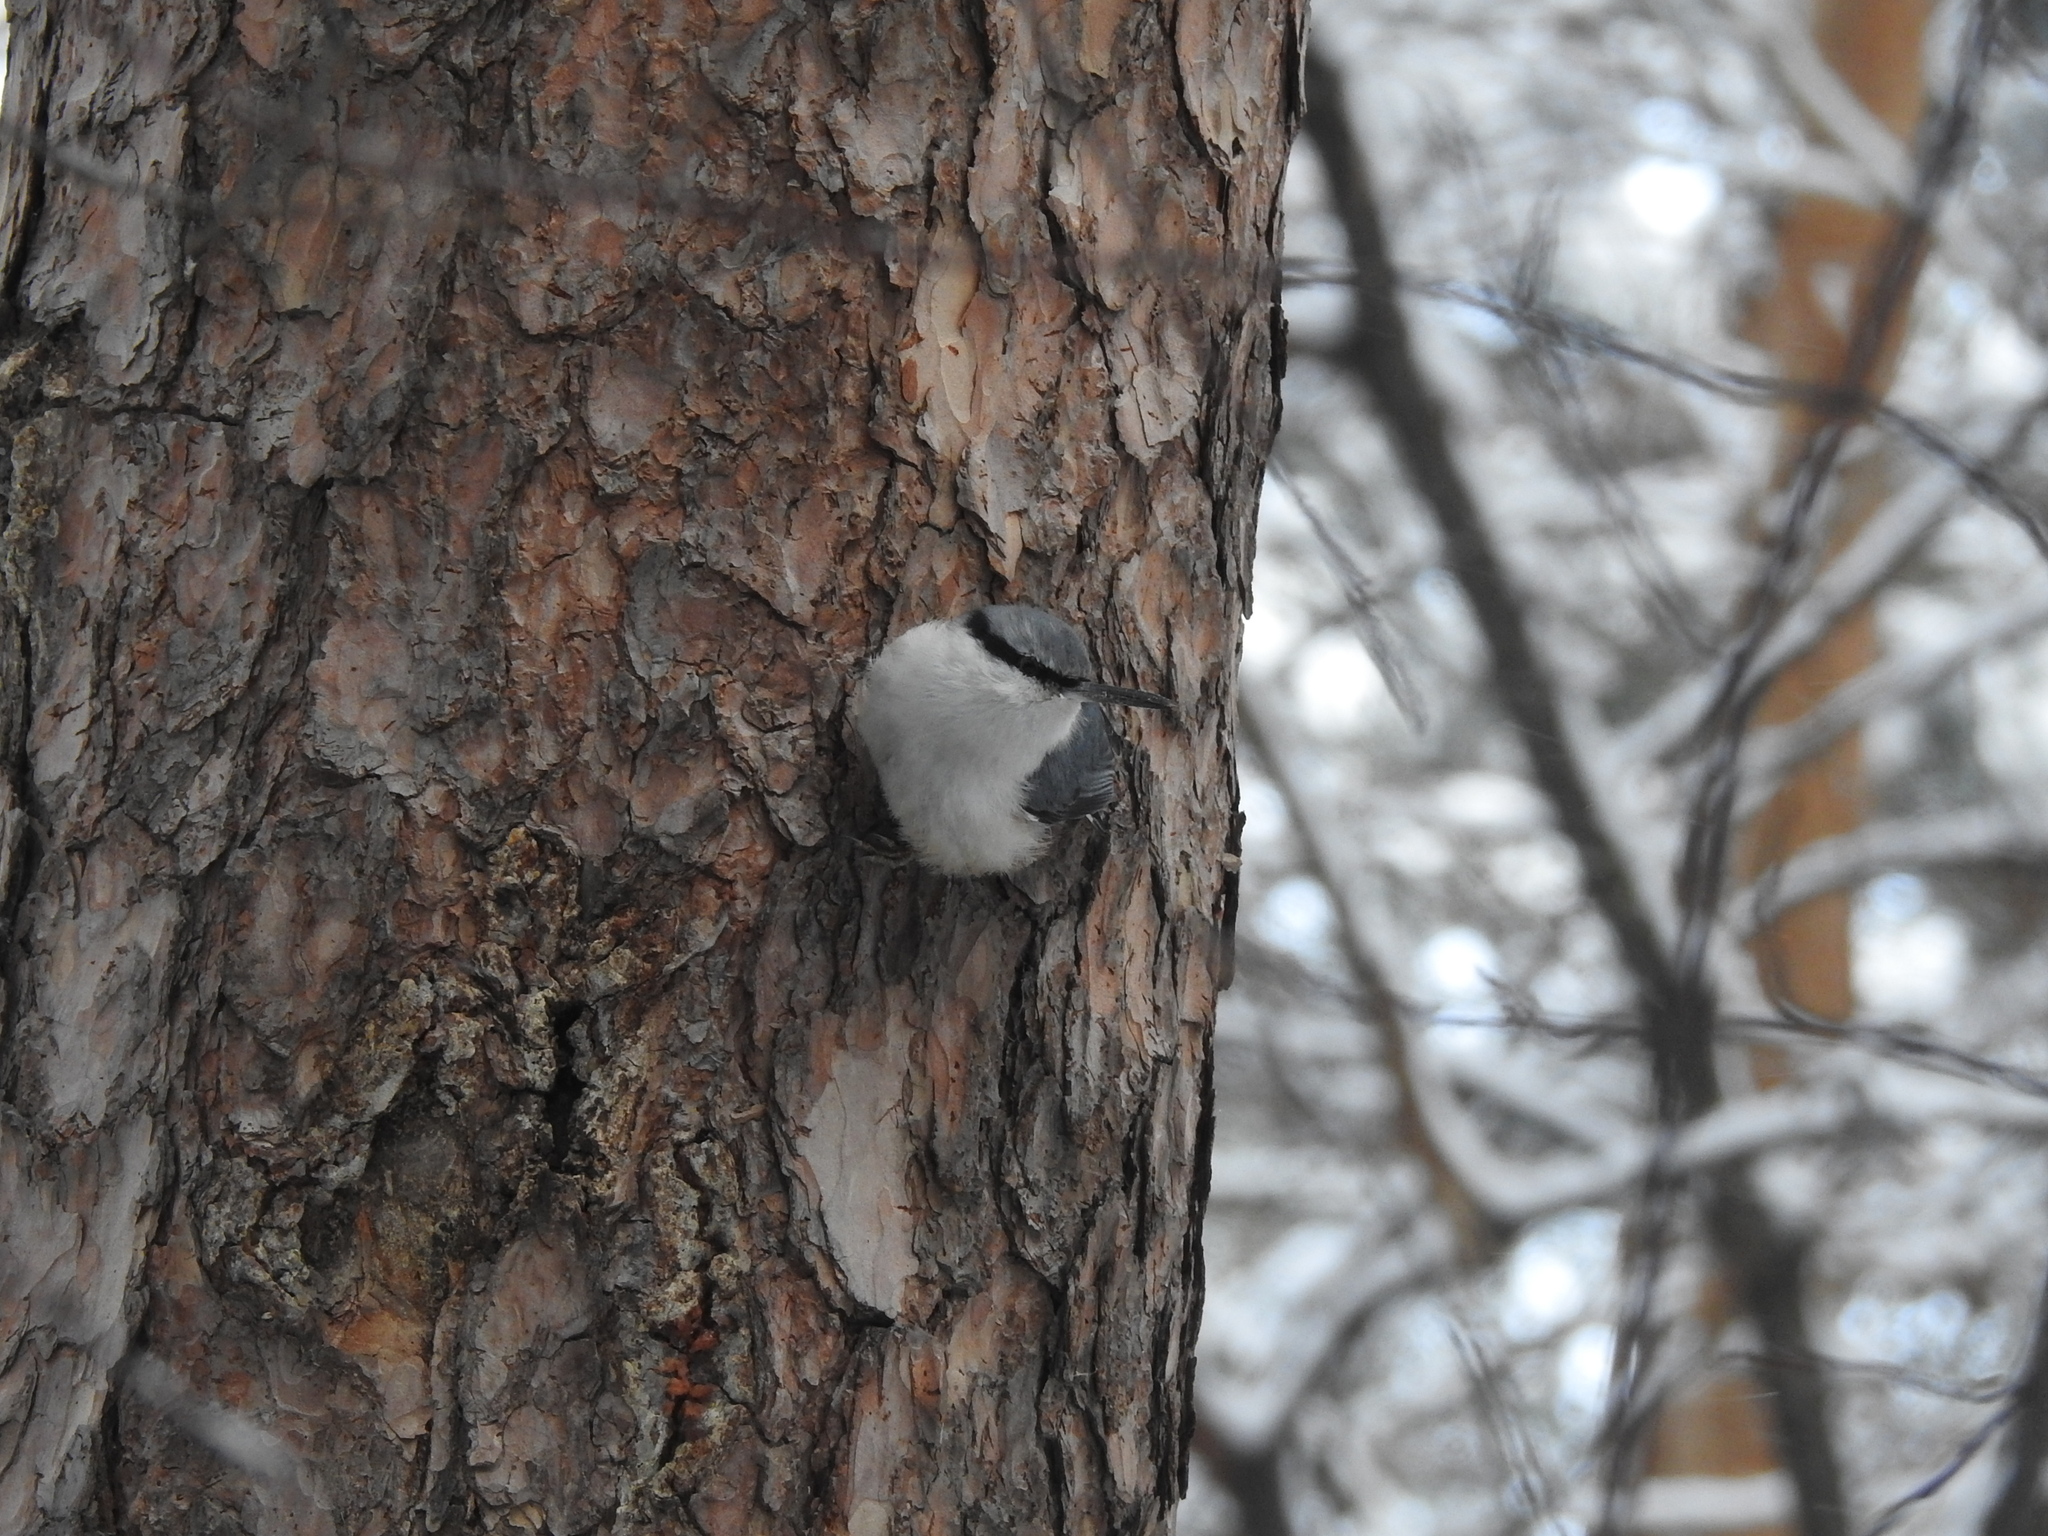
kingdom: Animalia
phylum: Chordata
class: Aves
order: Passeriformes
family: Sittidae
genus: Sitta
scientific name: Sitta europaea
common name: Eurasian nuthatch
